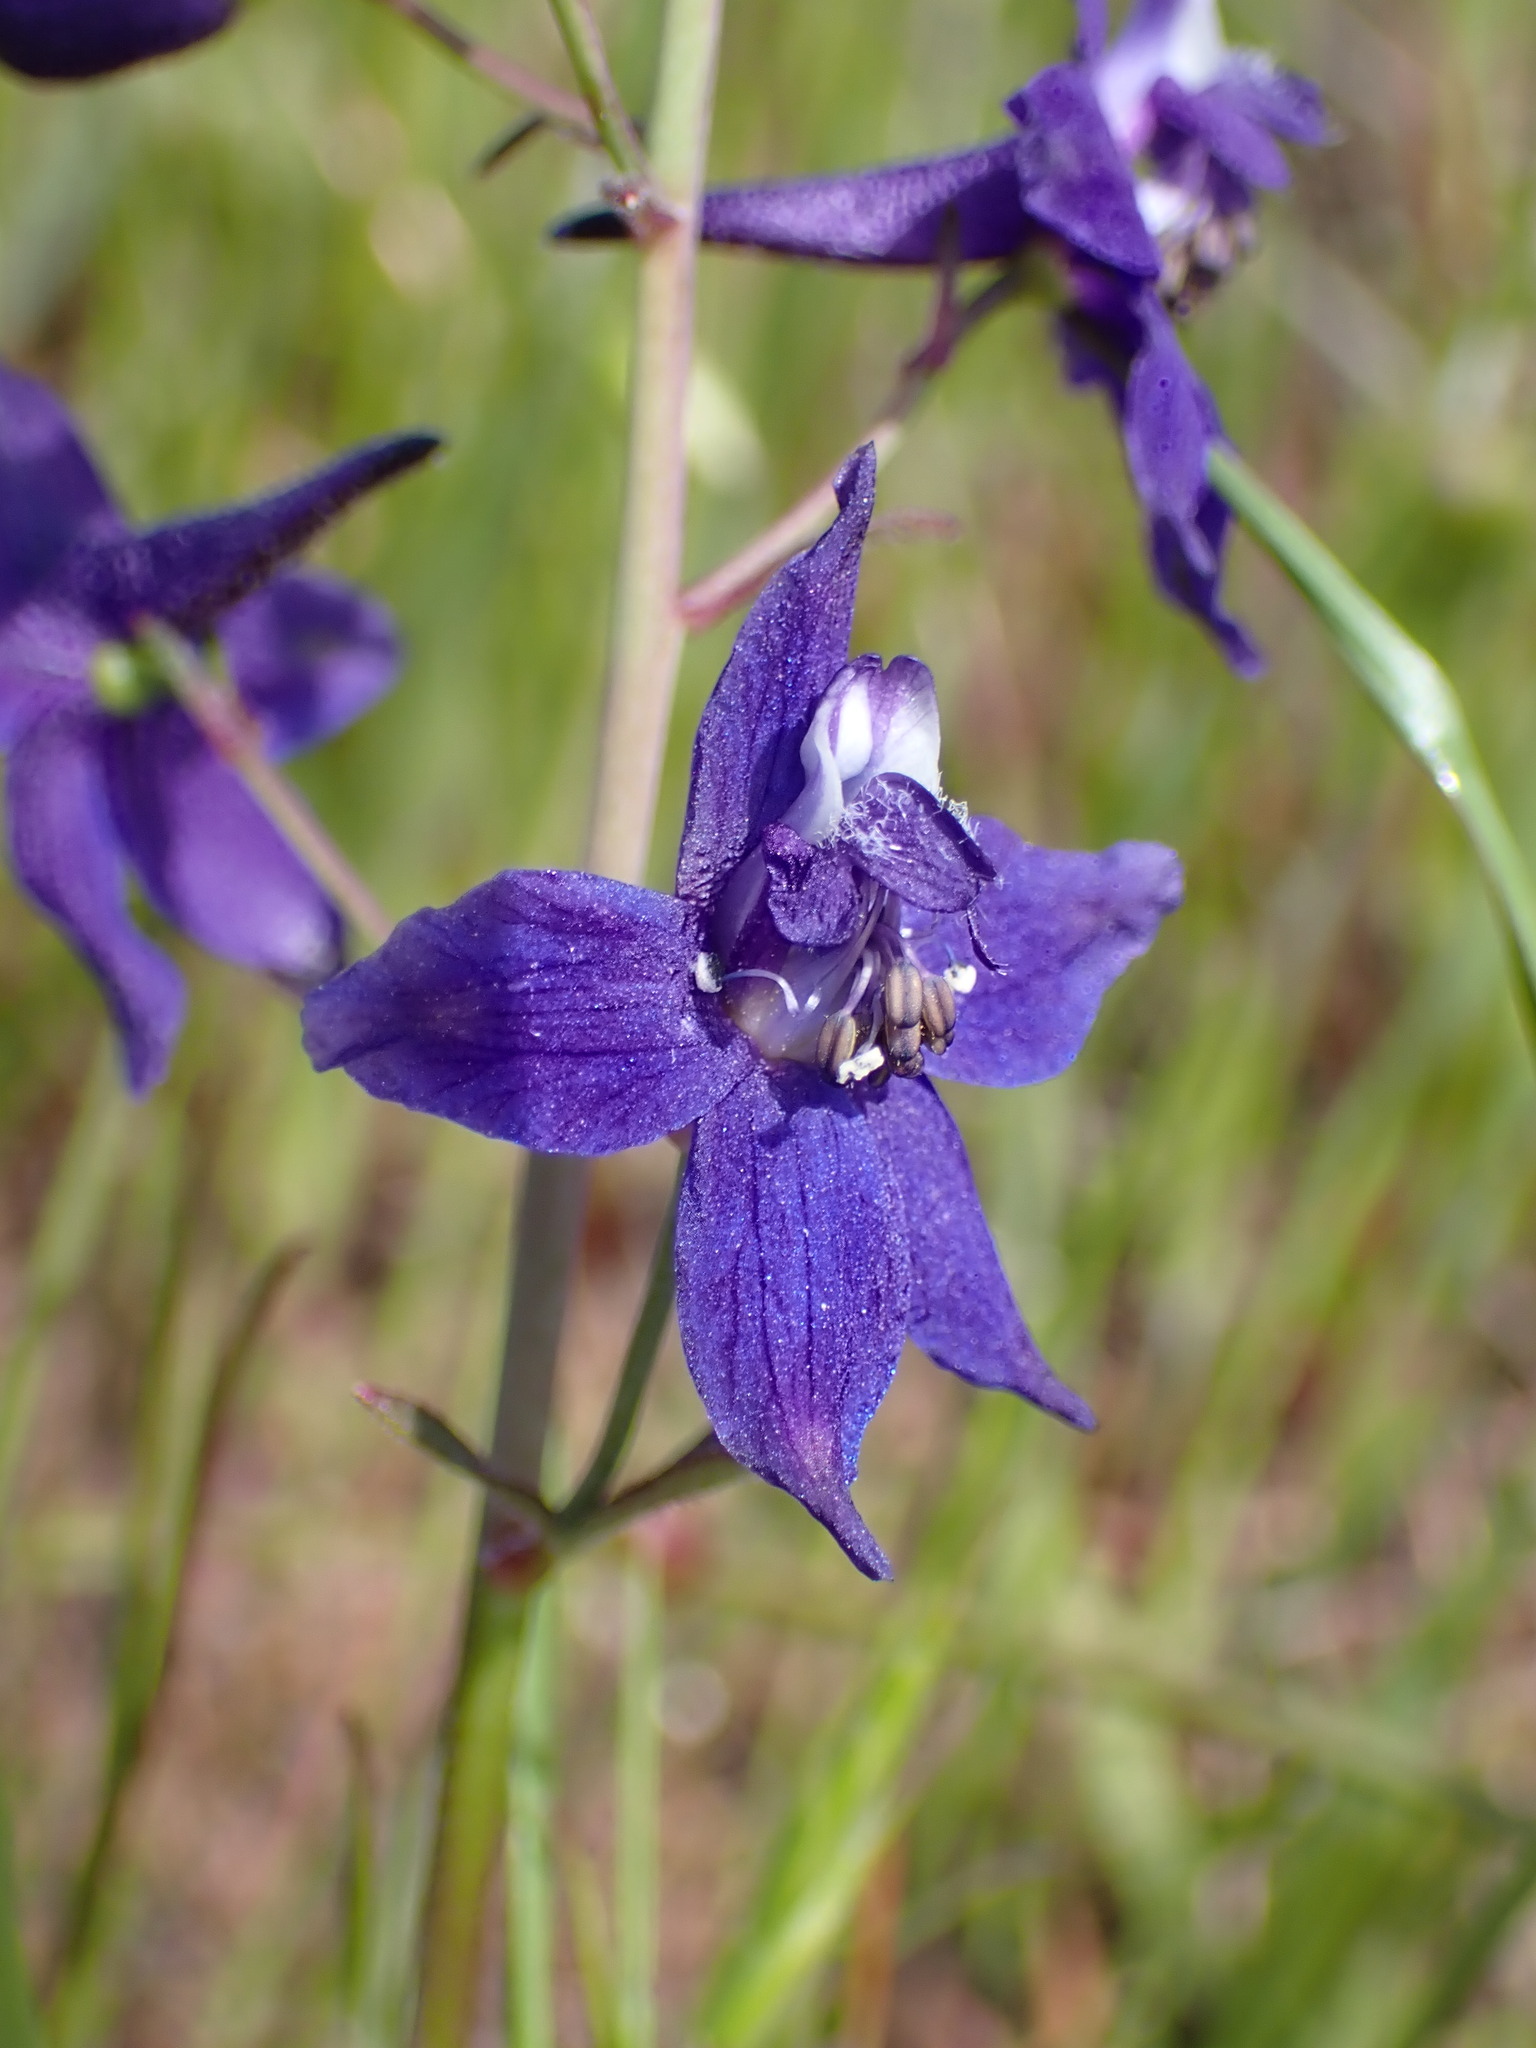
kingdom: Plantae
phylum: Tracheophyta
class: Magnoliopsida
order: Ranunculales
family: Ranunculaceae
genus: Delphinium
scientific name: Delphinium patens
